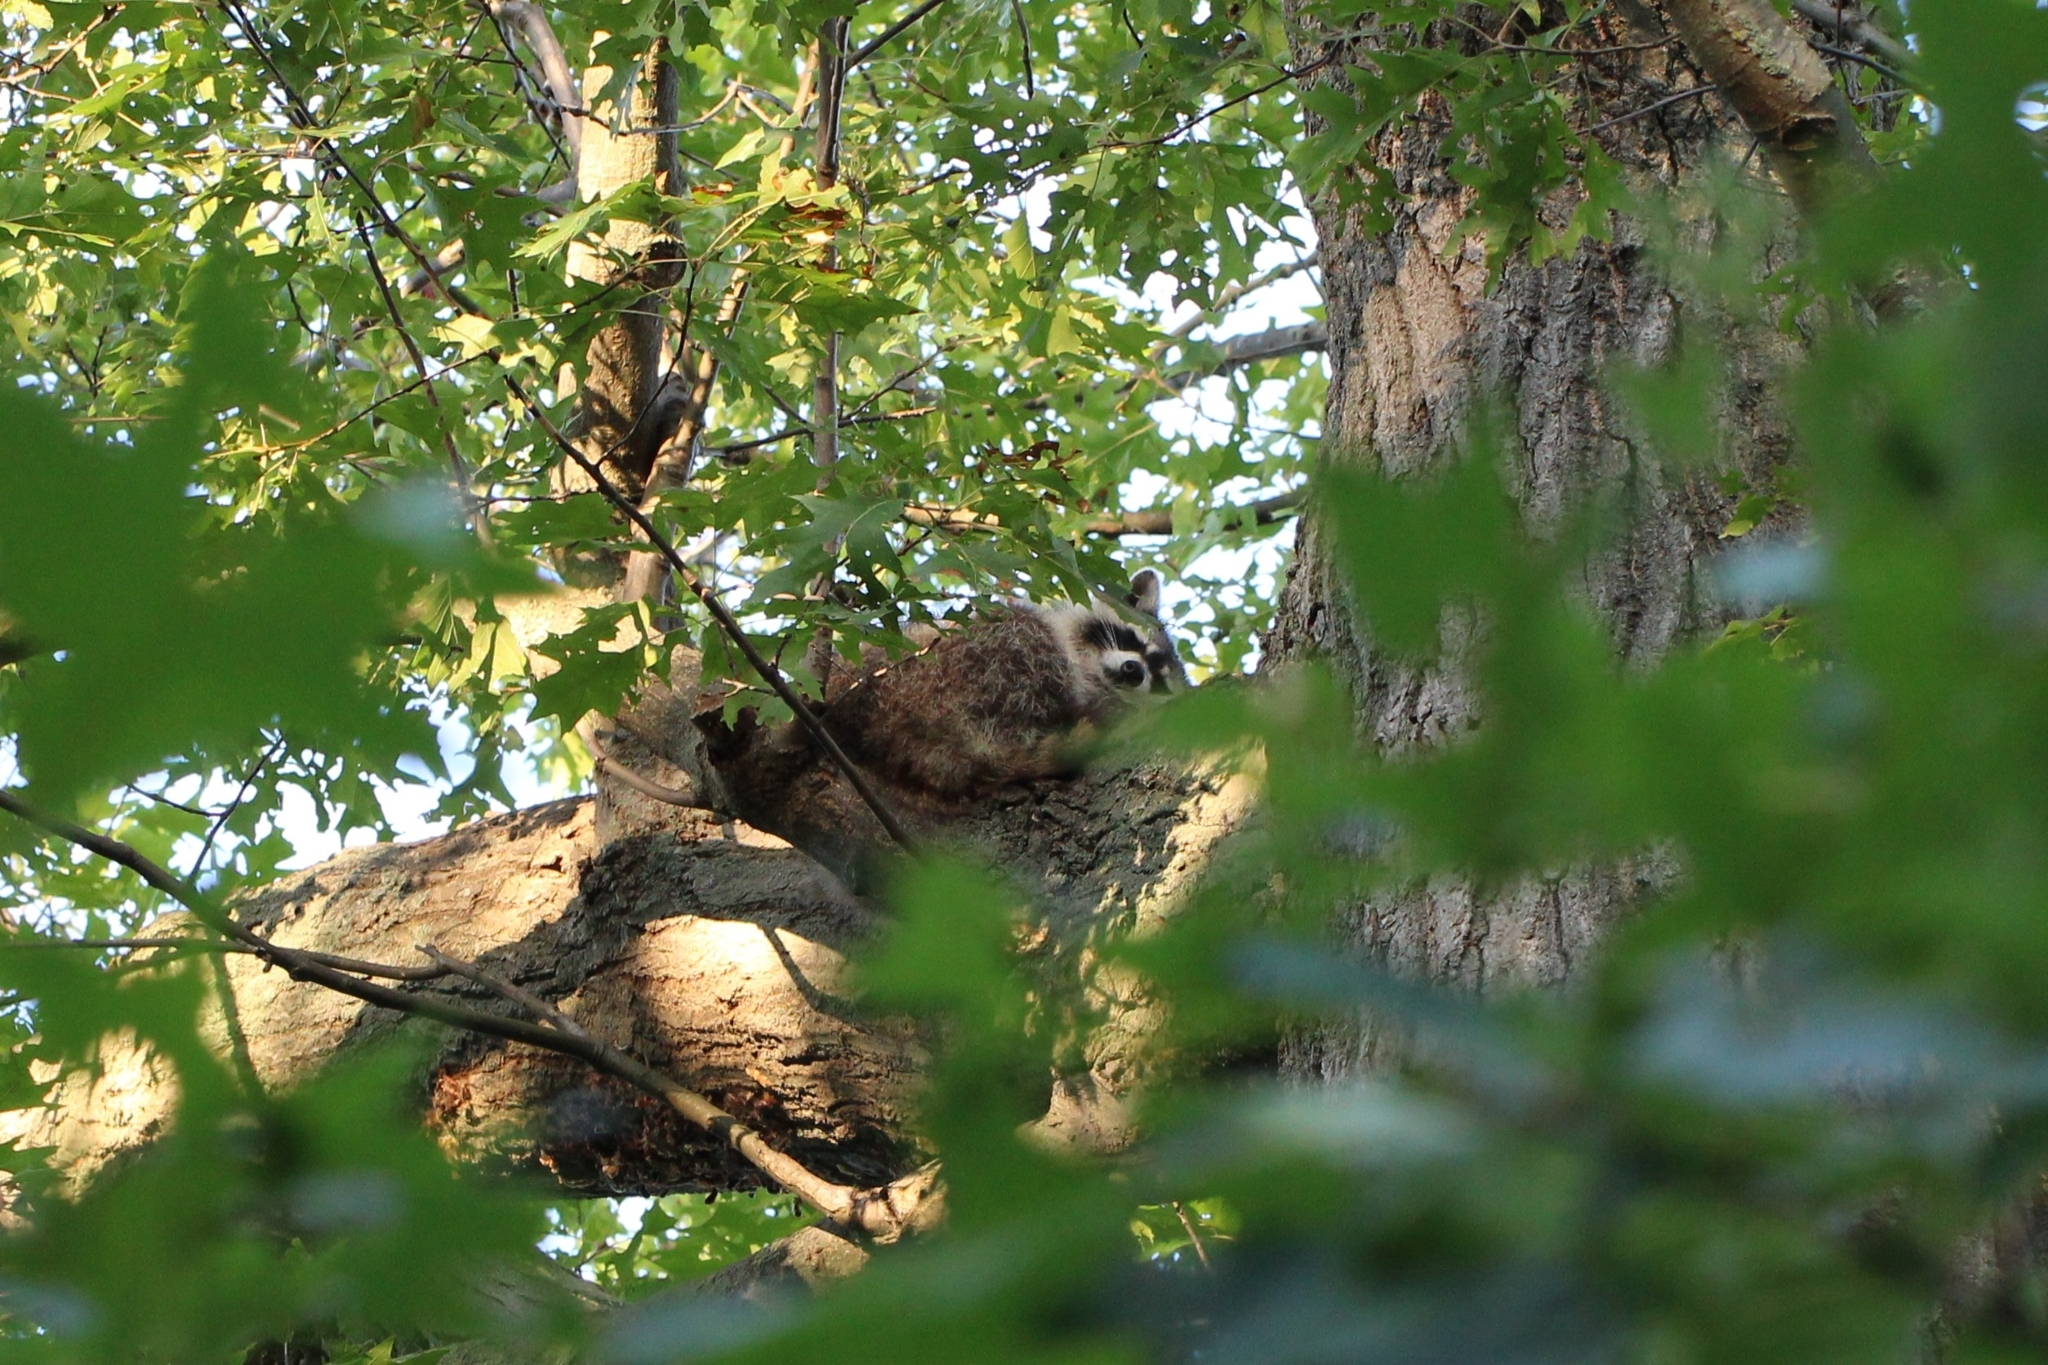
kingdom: Animalia
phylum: Chordata
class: Mammalia
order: Carnivora
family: Procyonidae
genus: Procyon
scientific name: Procyon lotor
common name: Raccoon
